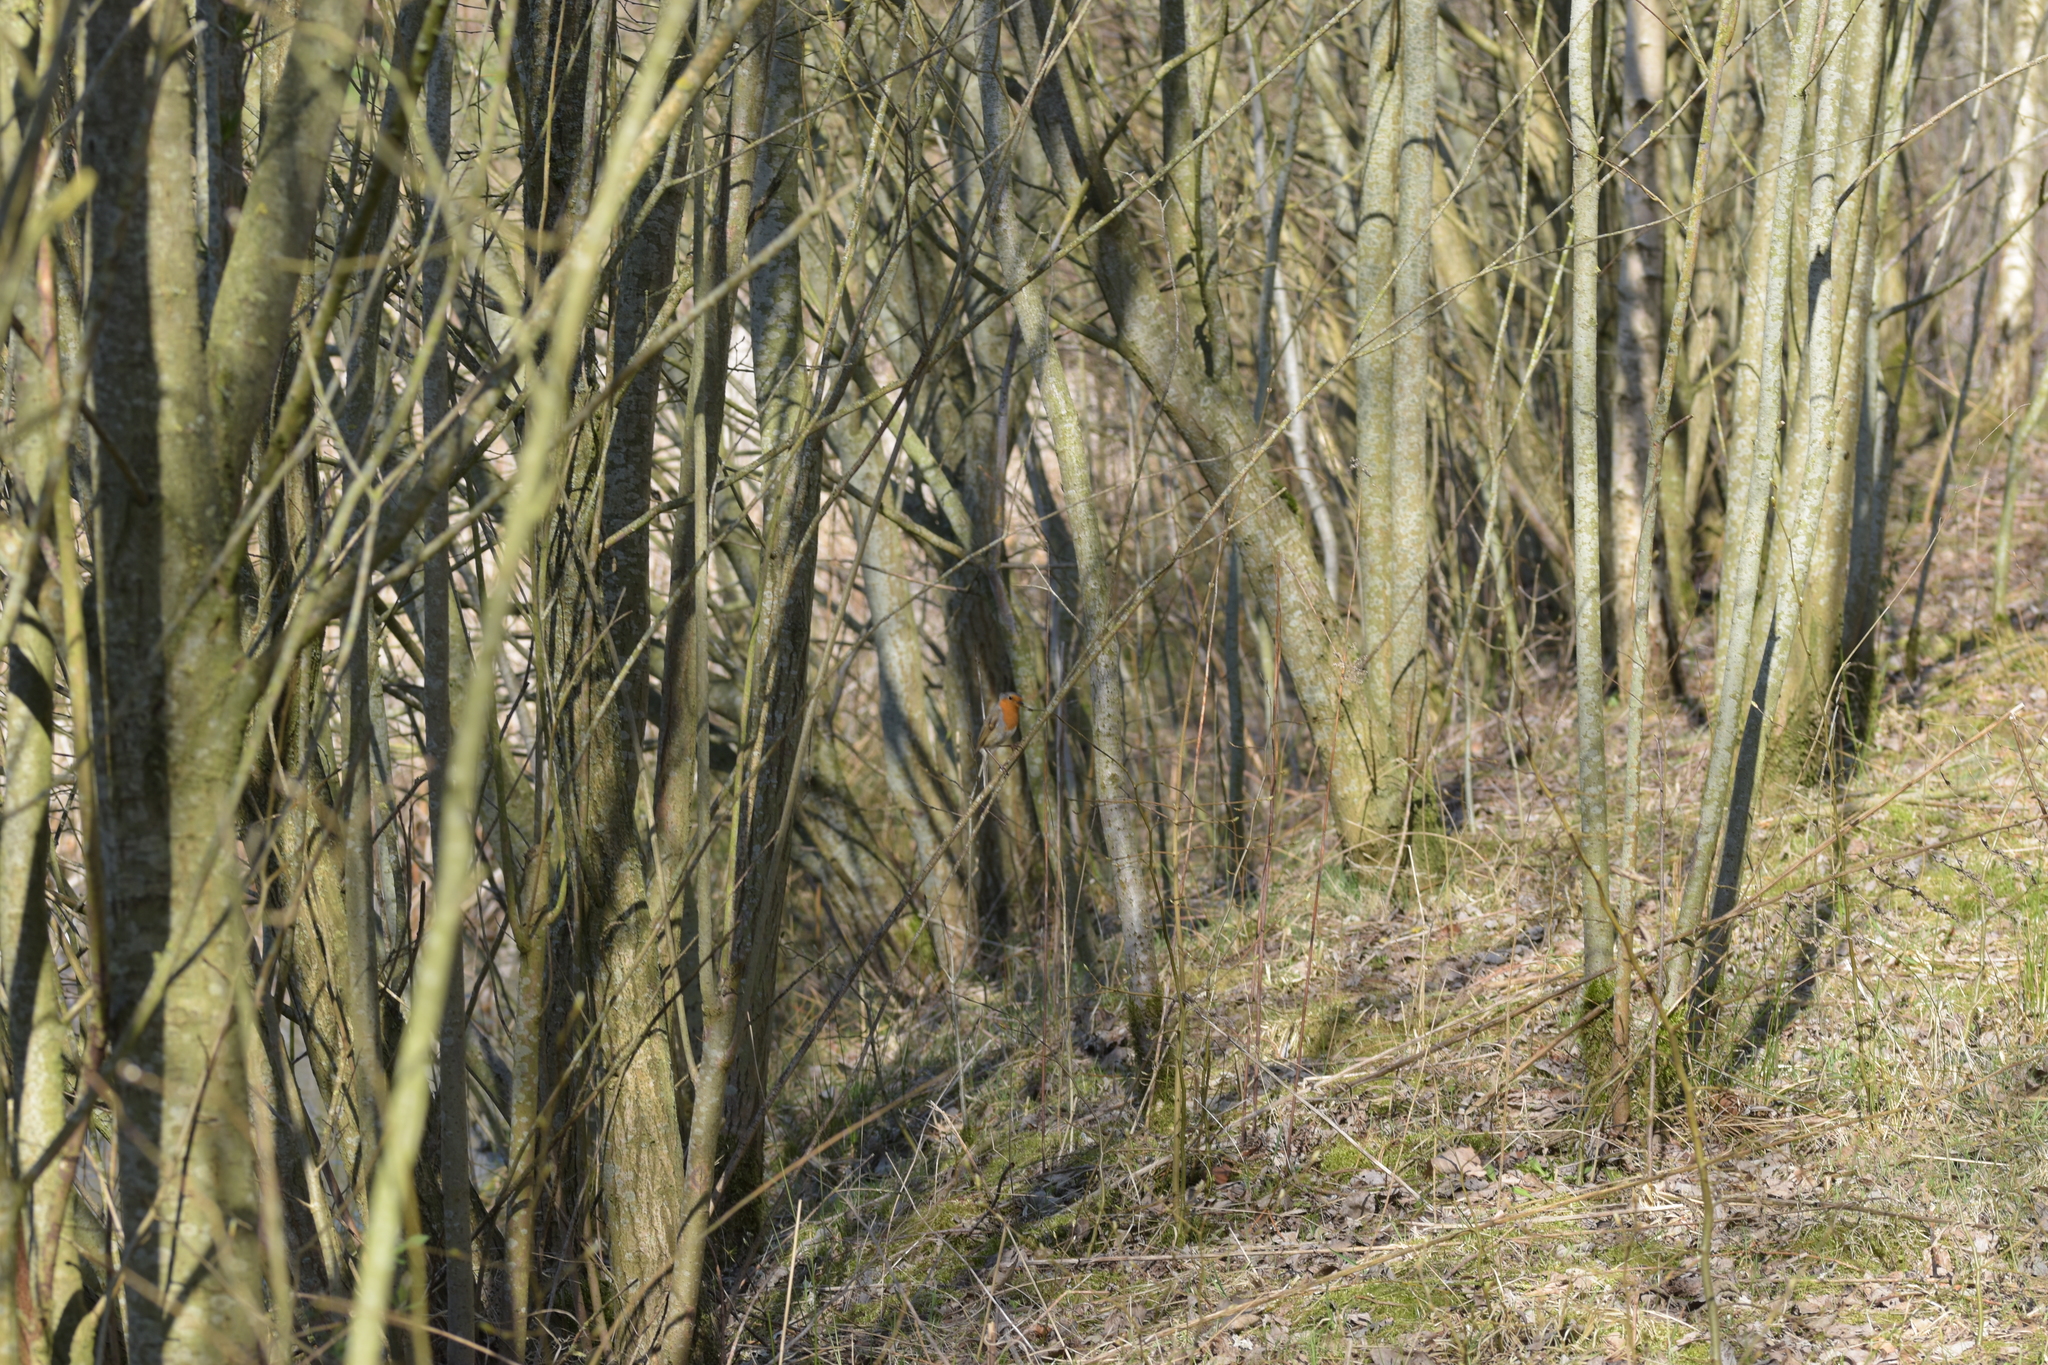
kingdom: Animalia
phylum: Chordata
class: Aves
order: Passeriformes
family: Muscicapidae
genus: Erithacus
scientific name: Erithacus rubecula
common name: European robin
